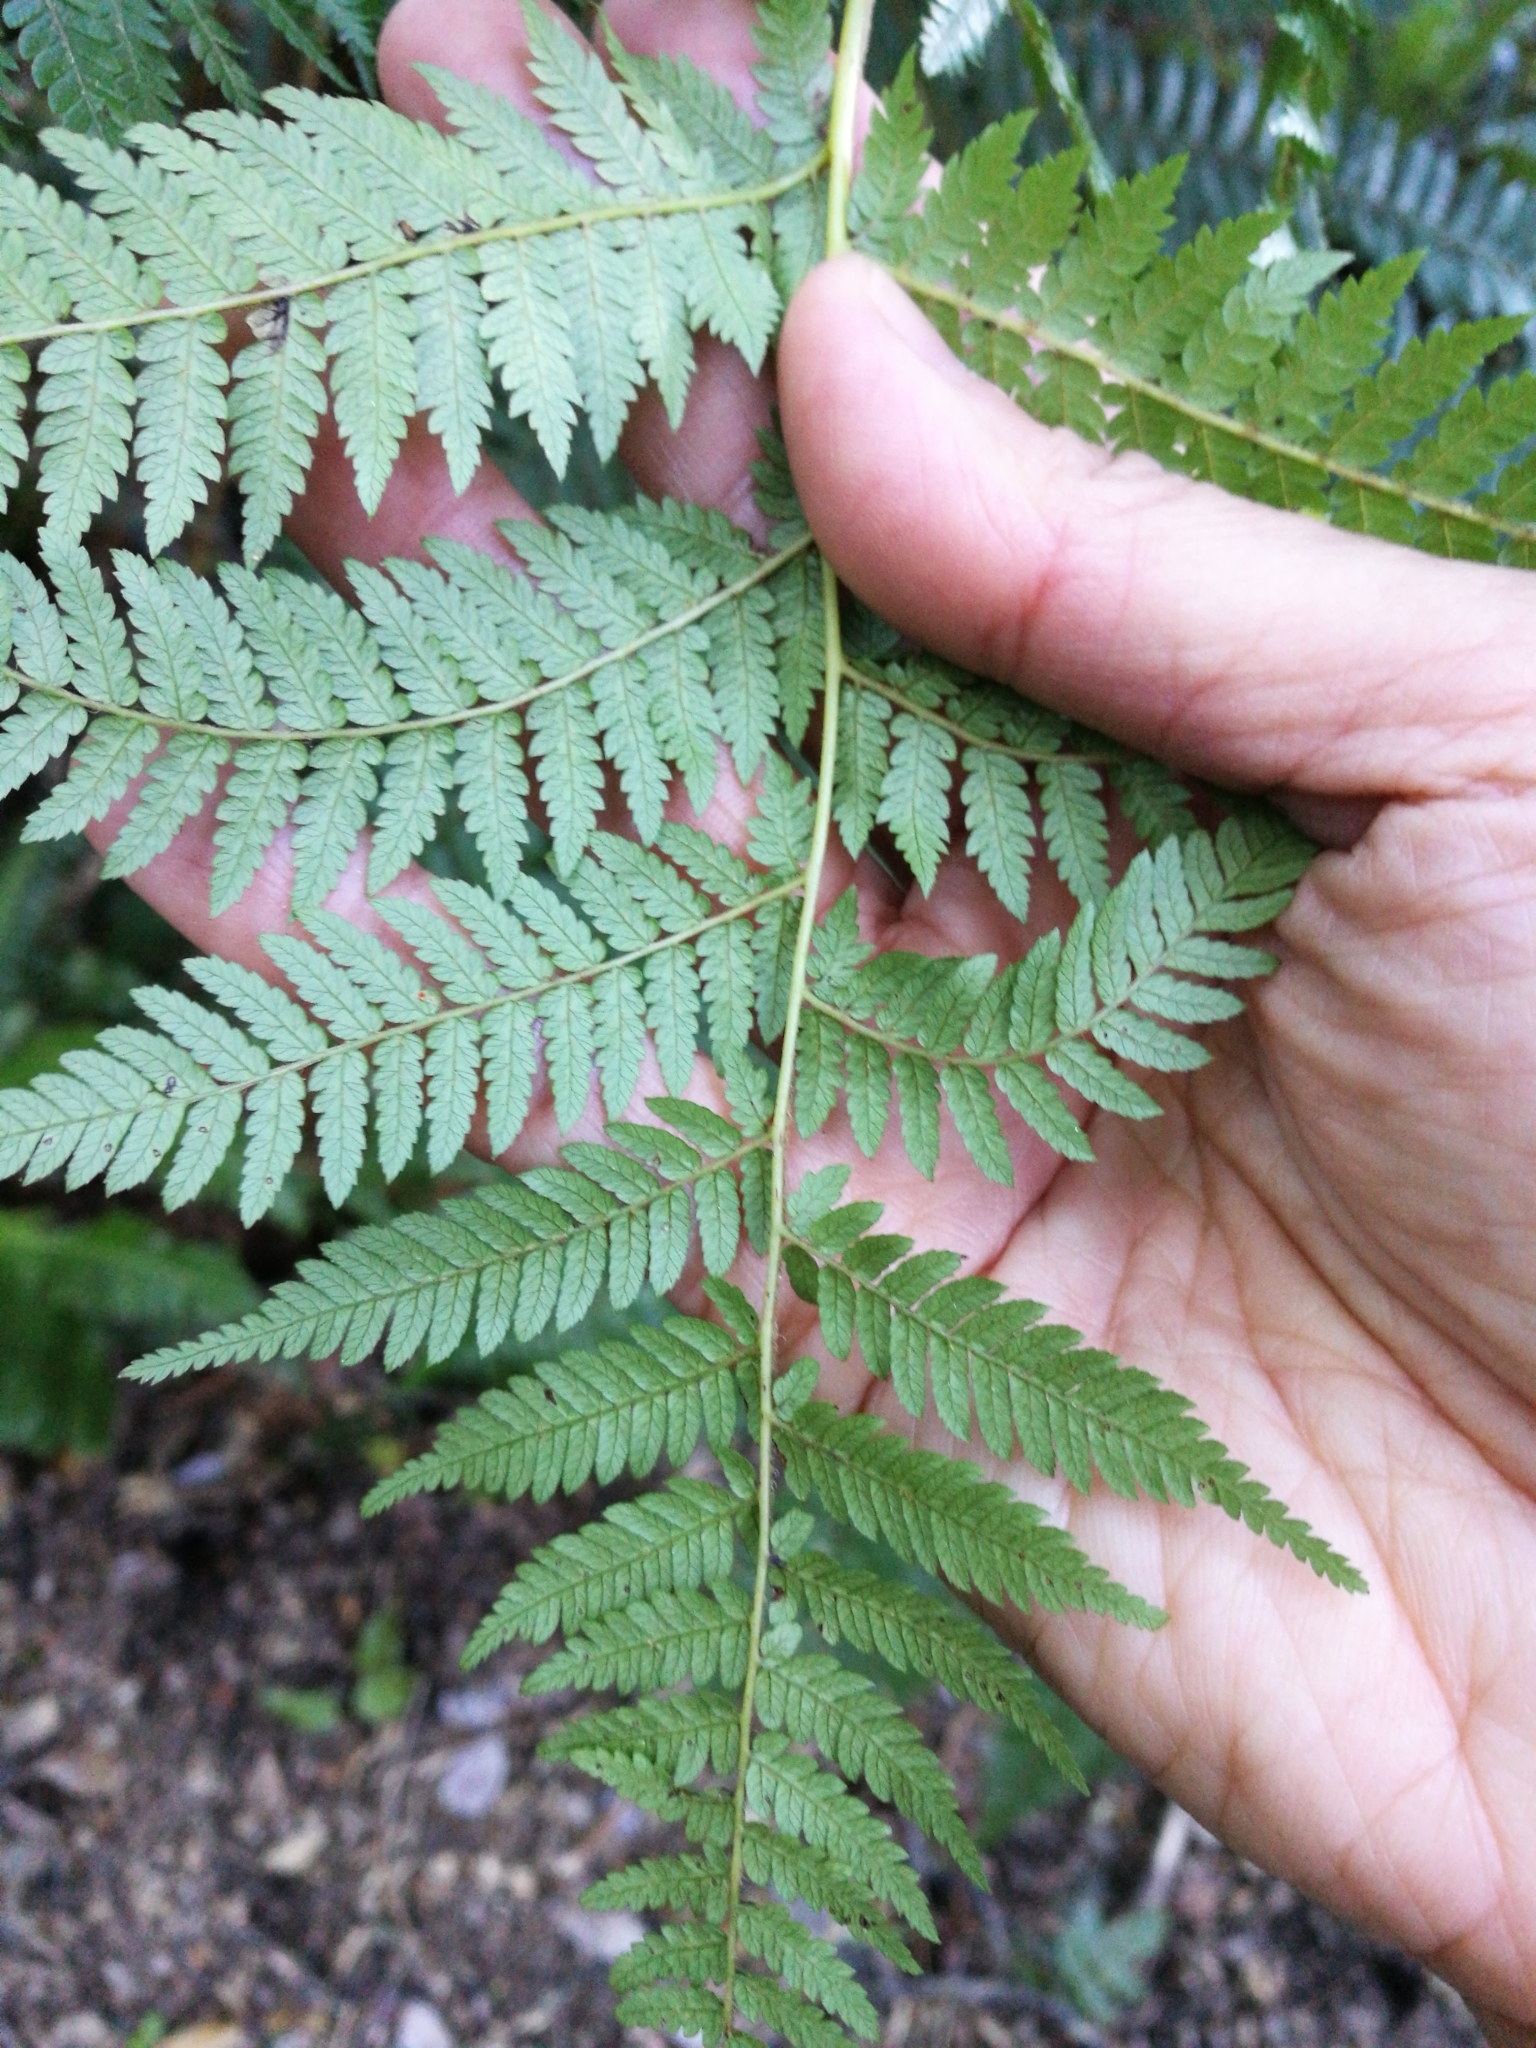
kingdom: Plantae
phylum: Tracheophyta
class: Polypodiopsida
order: Cyatheales
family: Cyatheaceae
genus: Alsophila
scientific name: Alsophila smithii
